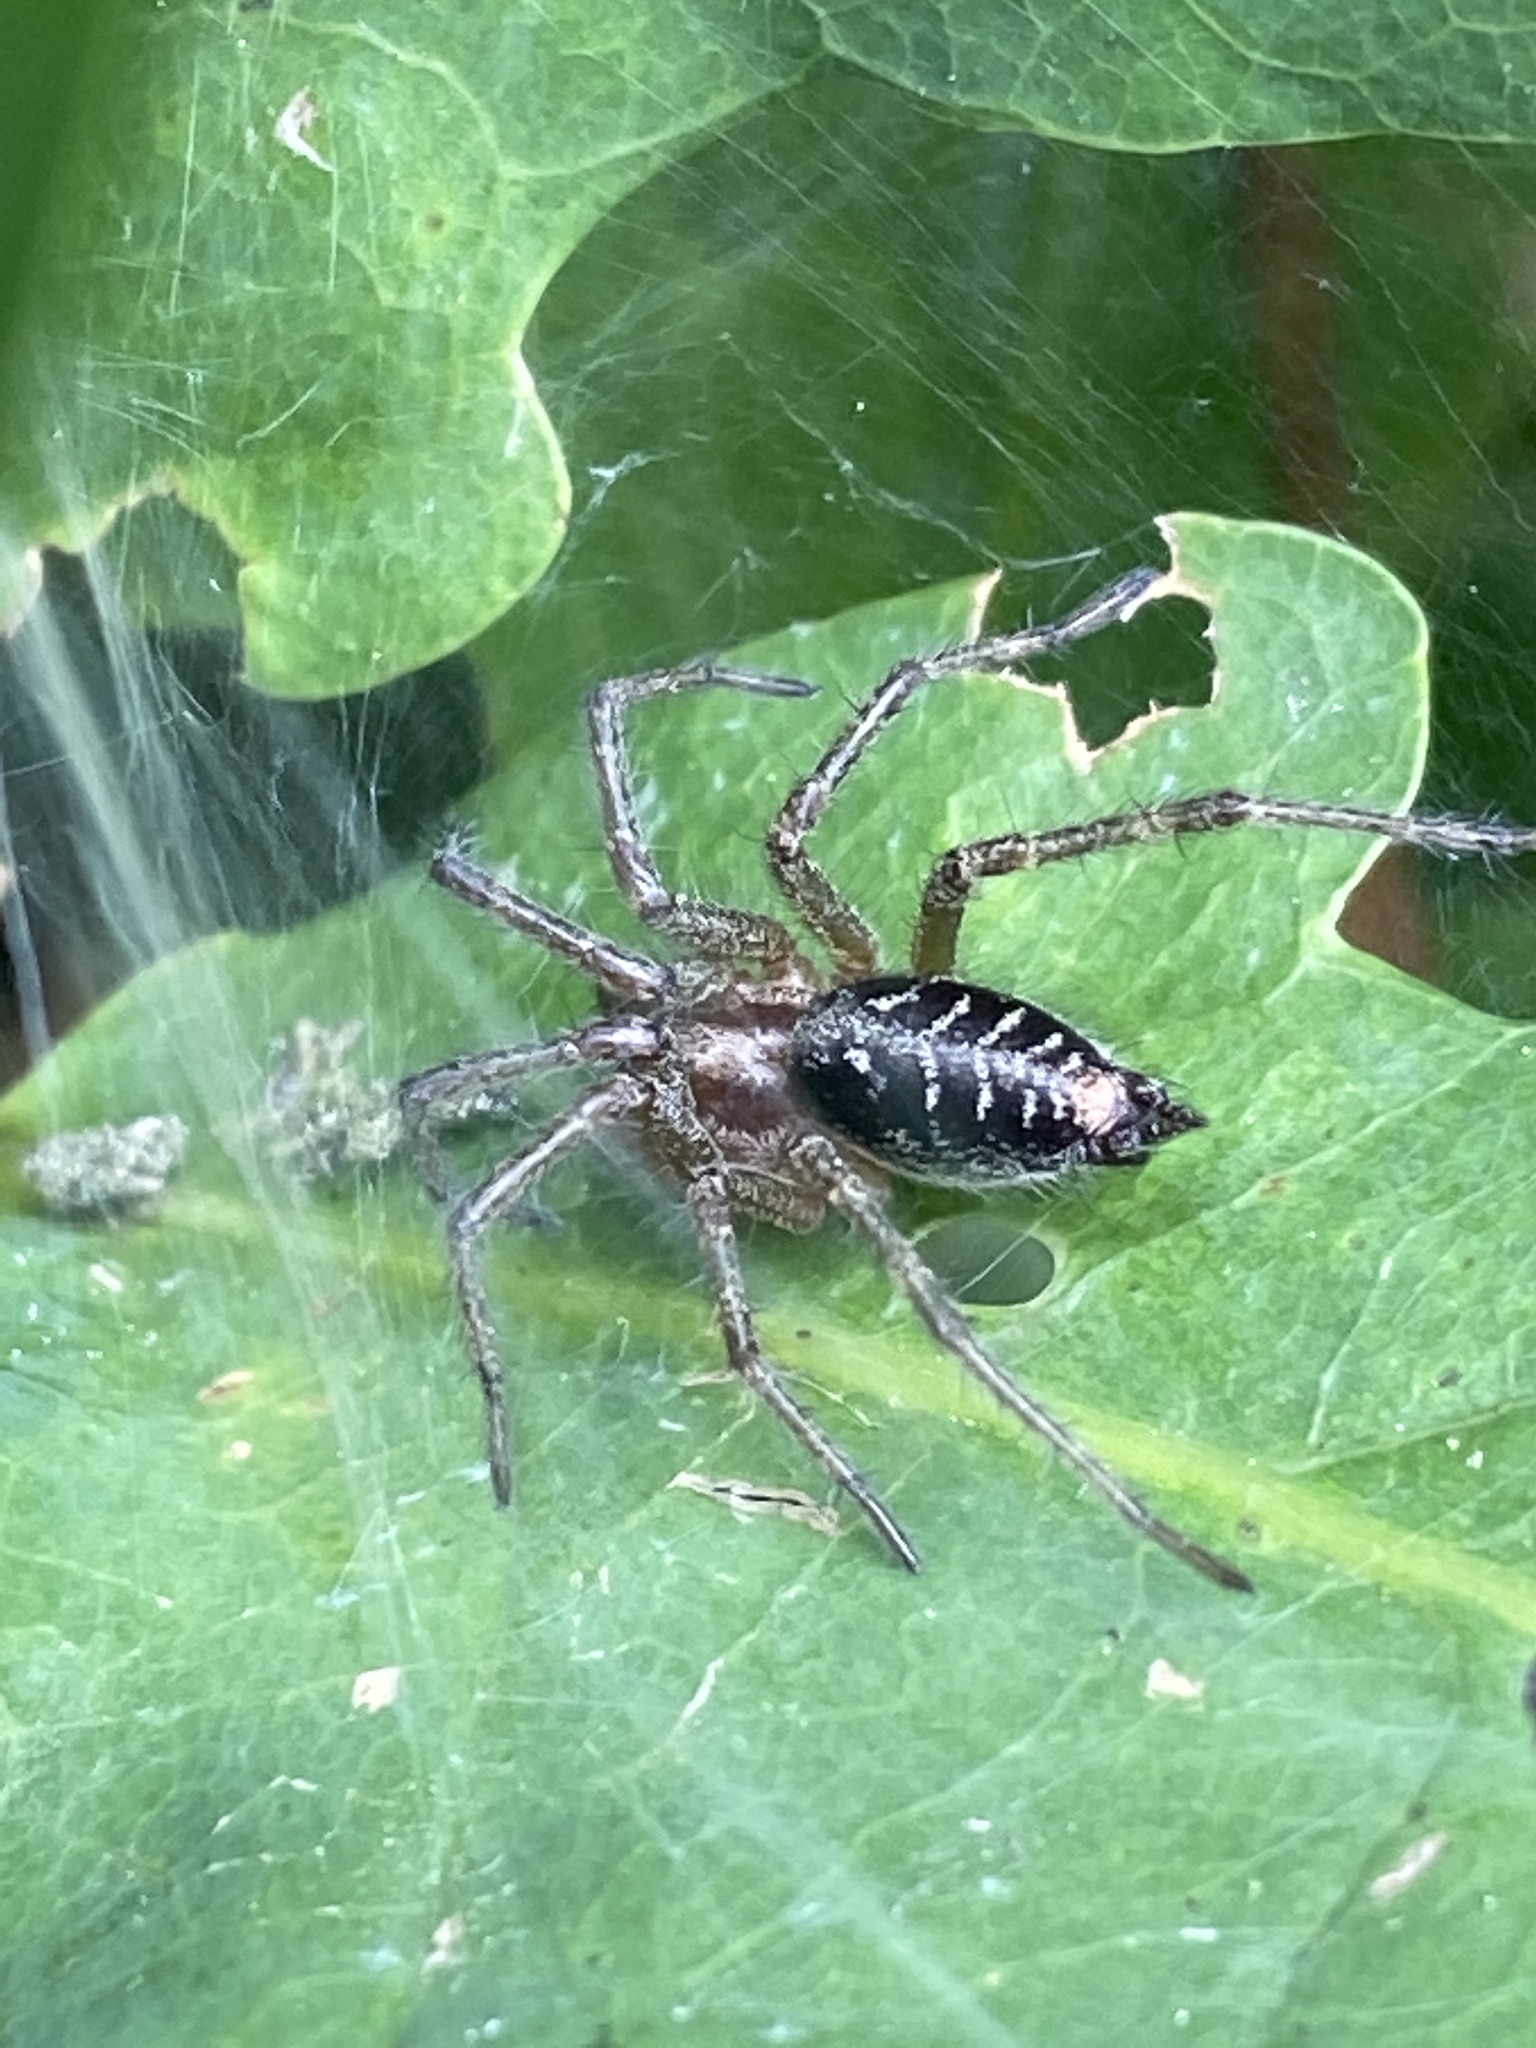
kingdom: Animalia
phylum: Arthropoda
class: Arachnida
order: Araneae
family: Agelenidae
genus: Agelena
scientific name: Agelena labyrinthica
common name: Labyrinth spider
